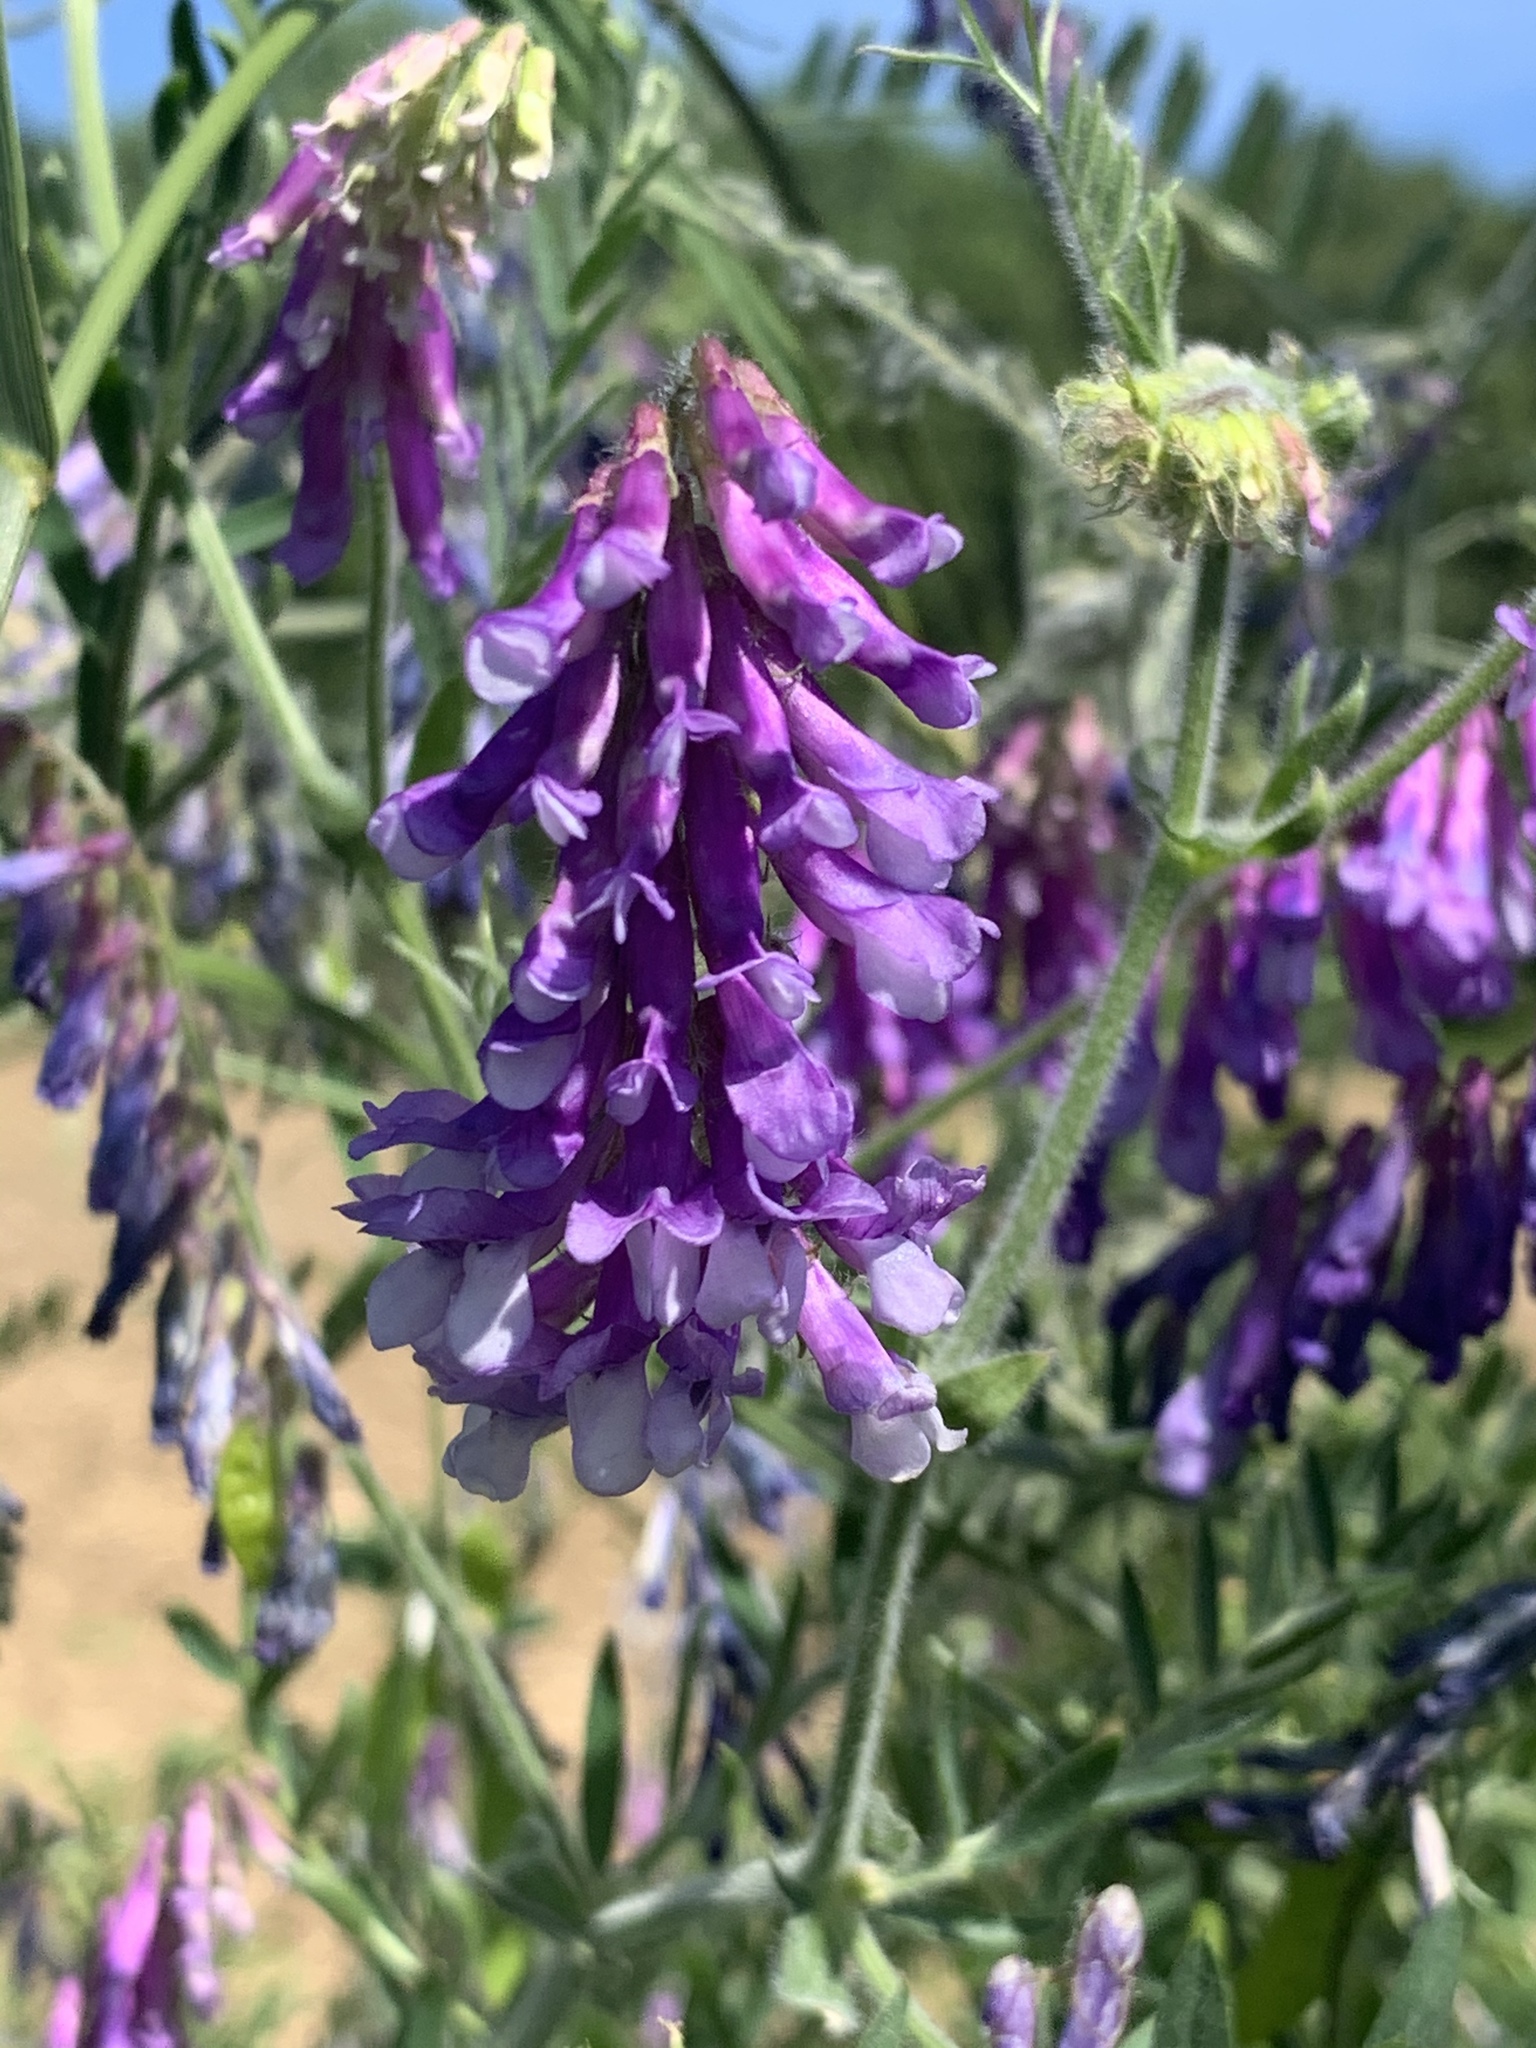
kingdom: Plantae
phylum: Tracheophyta
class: Magnoliopsida
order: Fabales
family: Fabaceae
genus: Vicia
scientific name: Vicia villosa
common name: Fodder vetch
